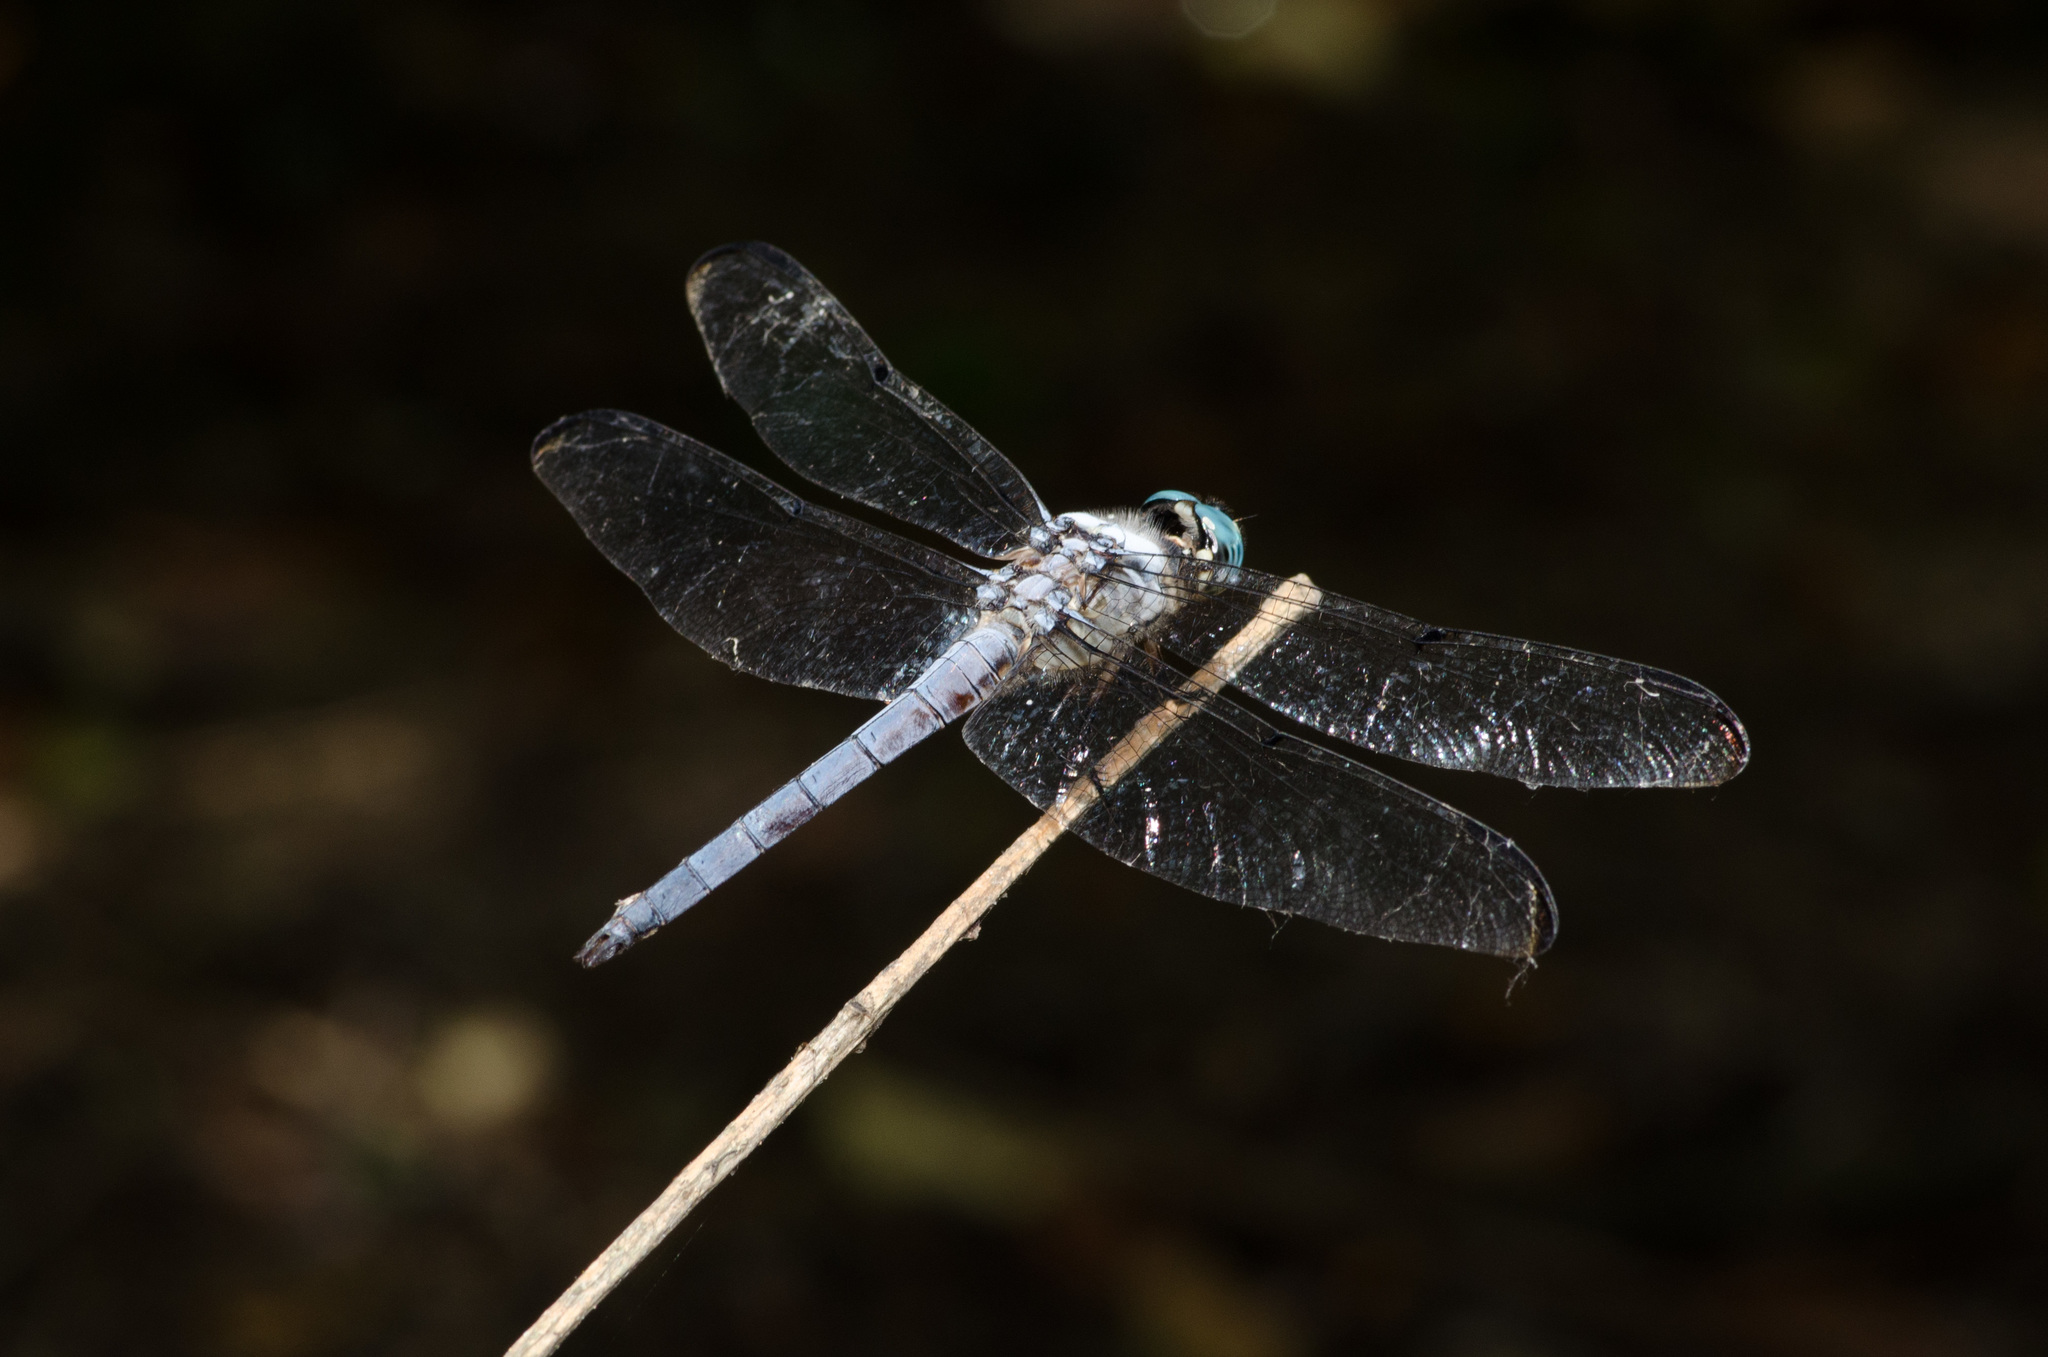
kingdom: Animalia
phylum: Arthropoda
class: Insecta
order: Odonata
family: Libellulidae
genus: Libellula
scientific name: Libellula vibrans
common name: Great blue skimmer
